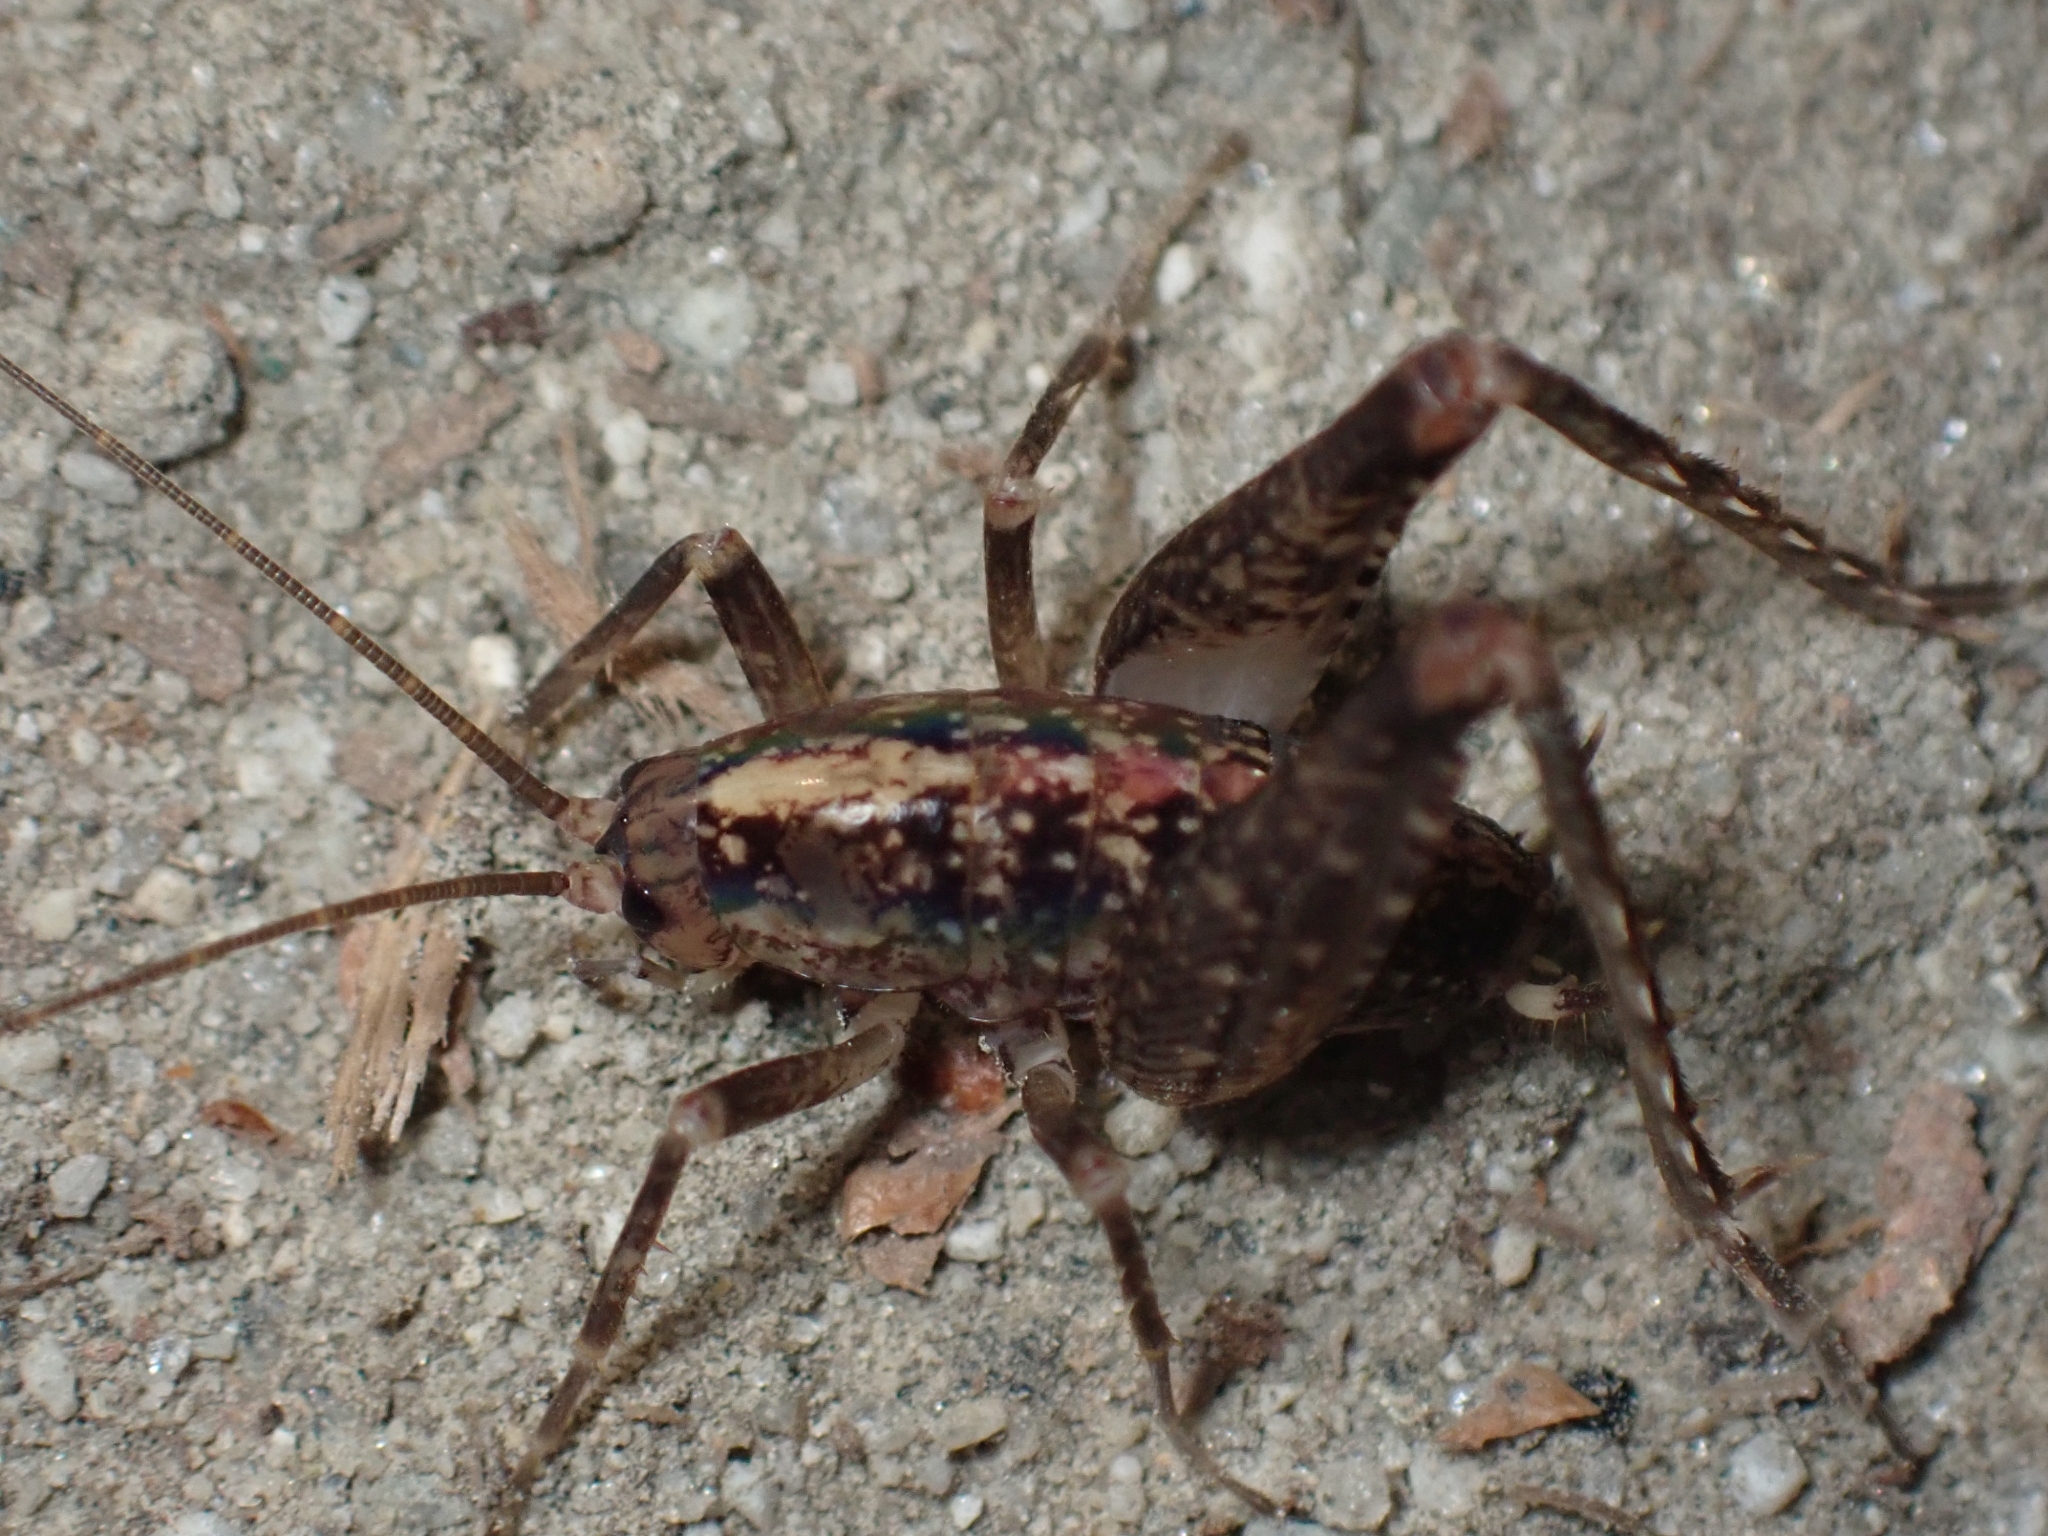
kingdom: Animalia
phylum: Arthropoda
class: Insecta
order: Orthoptera
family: Rhaphidophoridae
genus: Pristoceuthophilus
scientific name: Pristoceuthophilus celatus
